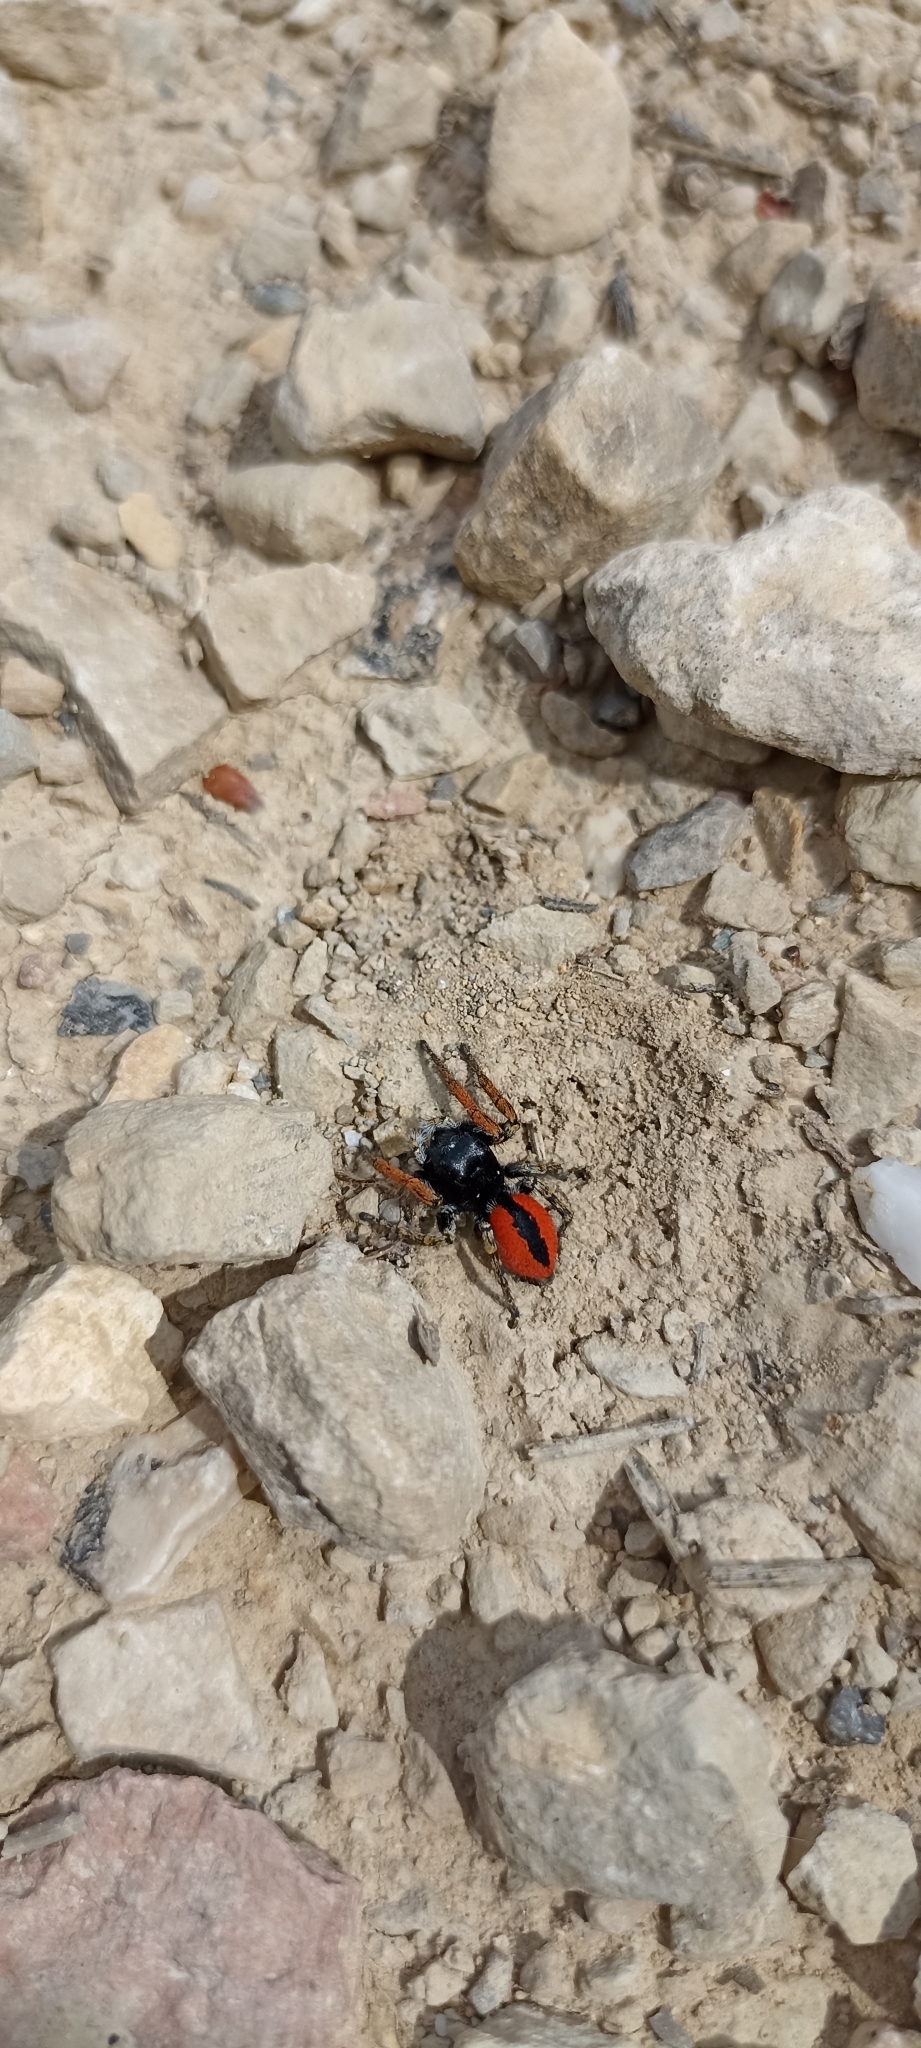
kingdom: Animalia
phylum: Arthropoda
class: Arachnida
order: Araneae
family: Salticidae
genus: Philaeus
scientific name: Philaeus chrysops
